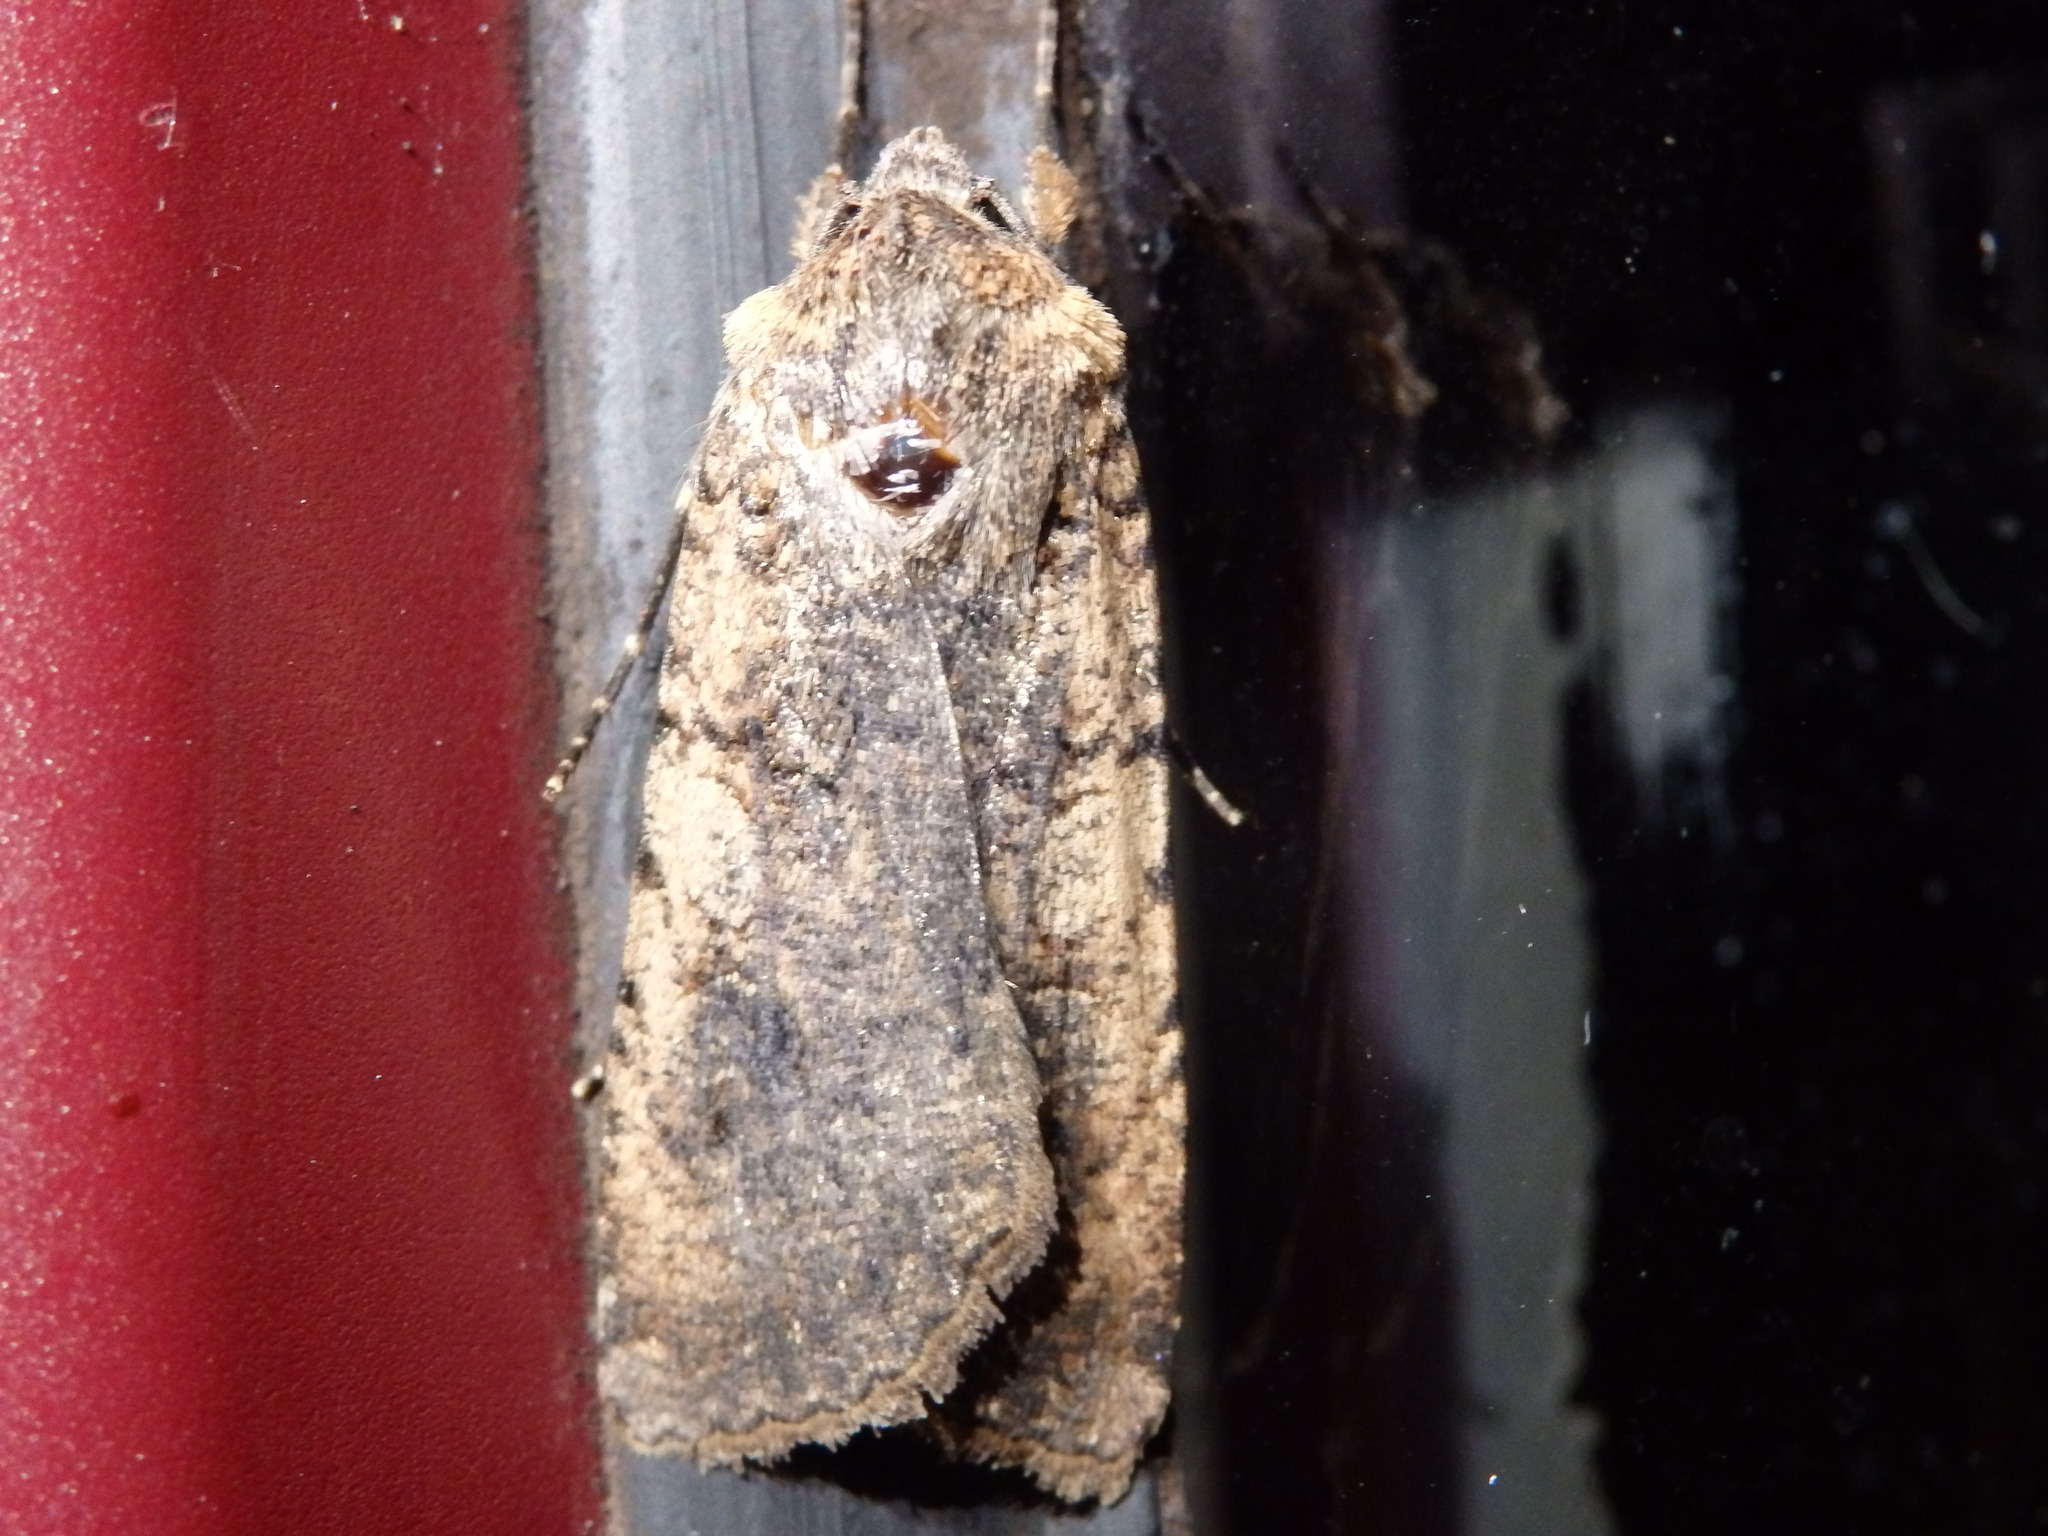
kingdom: Animalia
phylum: Arthropoda
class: Insecta
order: Lepidoptera
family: Noctuidae
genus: Peridroma
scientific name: Peridroma saucia
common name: Pearly underwing
